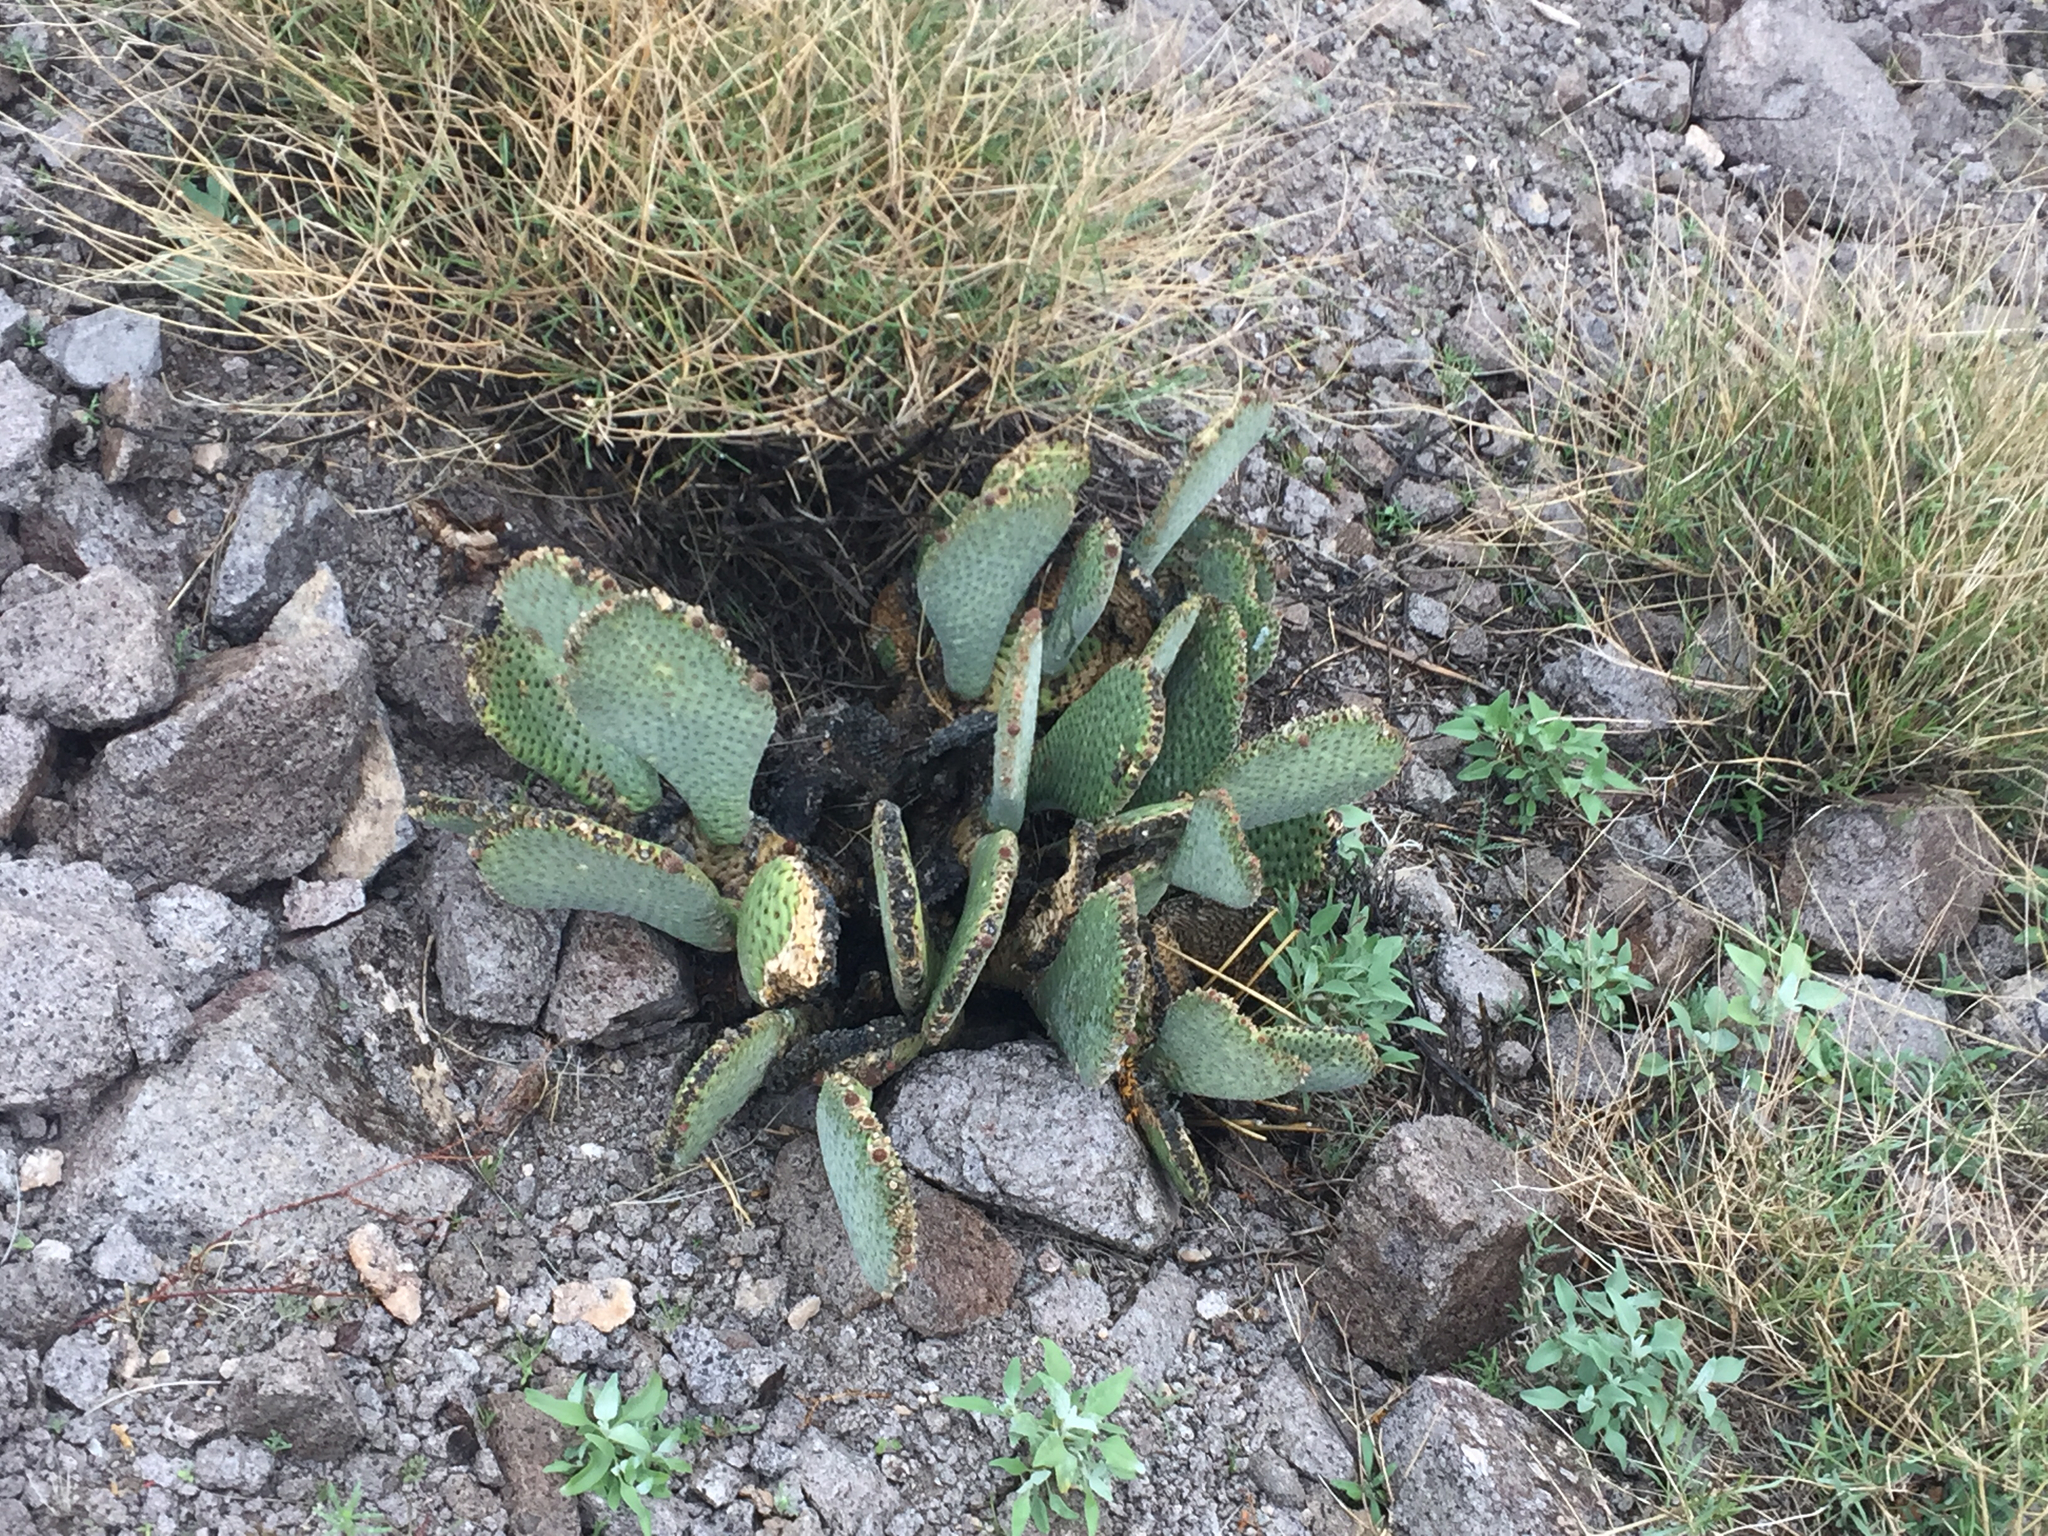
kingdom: Plantae
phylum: Tracheophyta
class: Magnoliopsida
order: Caryophyllales
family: Cactaceae
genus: Opuntia
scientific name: Opuntia basilaris
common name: Beavertail prickly-pear
